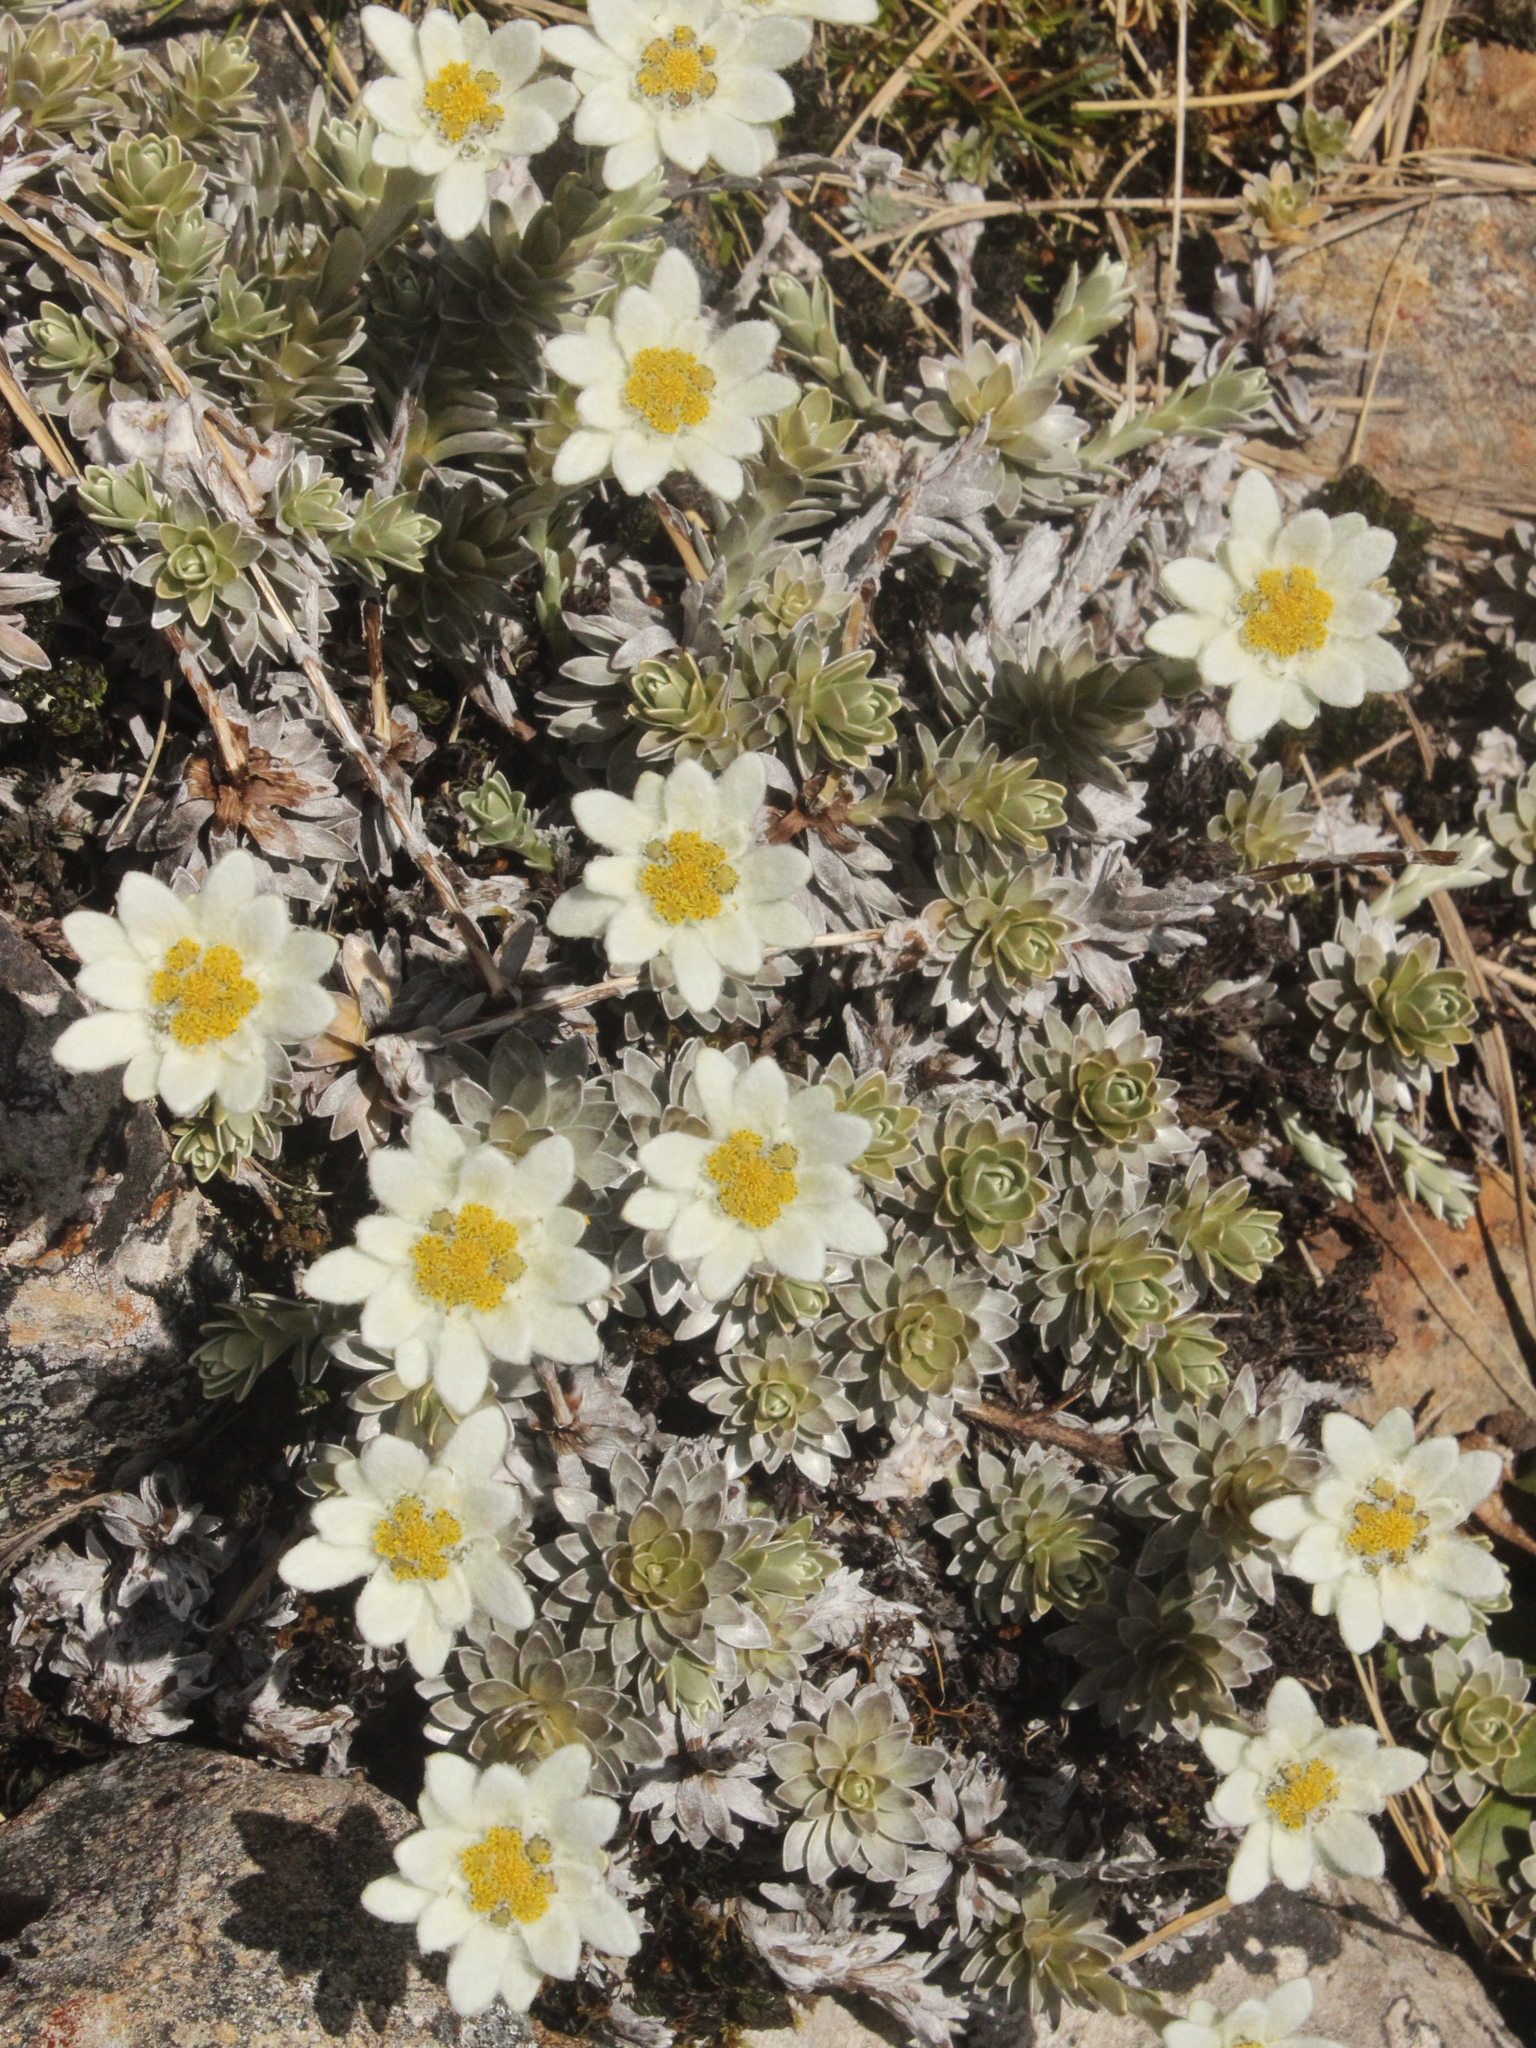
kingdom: Plantae
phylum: Tracheophyta
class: Magnoliopsida
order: Asterales
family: Asteraceae
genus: Leucogenes
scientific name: Leucogenes leontopodium
